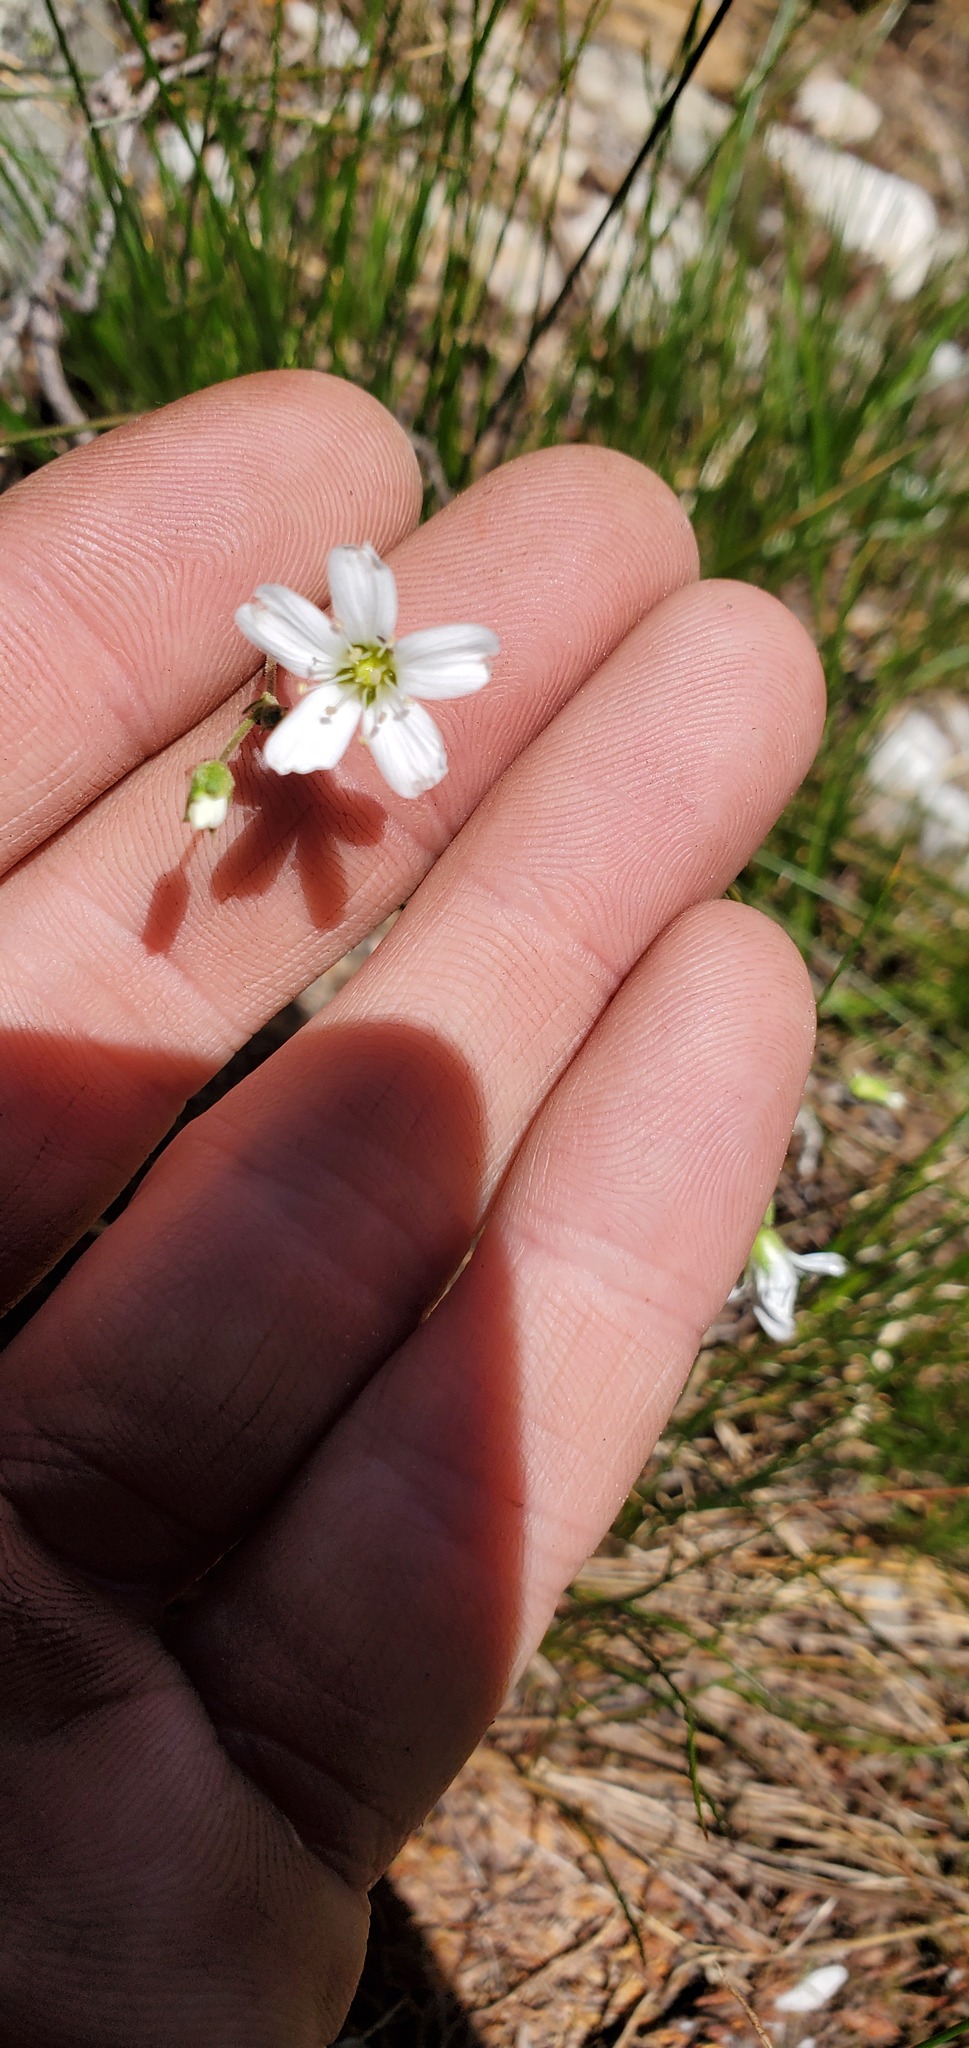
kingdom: Plantae
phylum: Tracheophyta
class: Magnoliopsida
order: Caryophyllales
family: Caryophyllaceae
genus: Eremogone
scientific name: Eremogone capillaris
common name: Slender mountain sandwort
